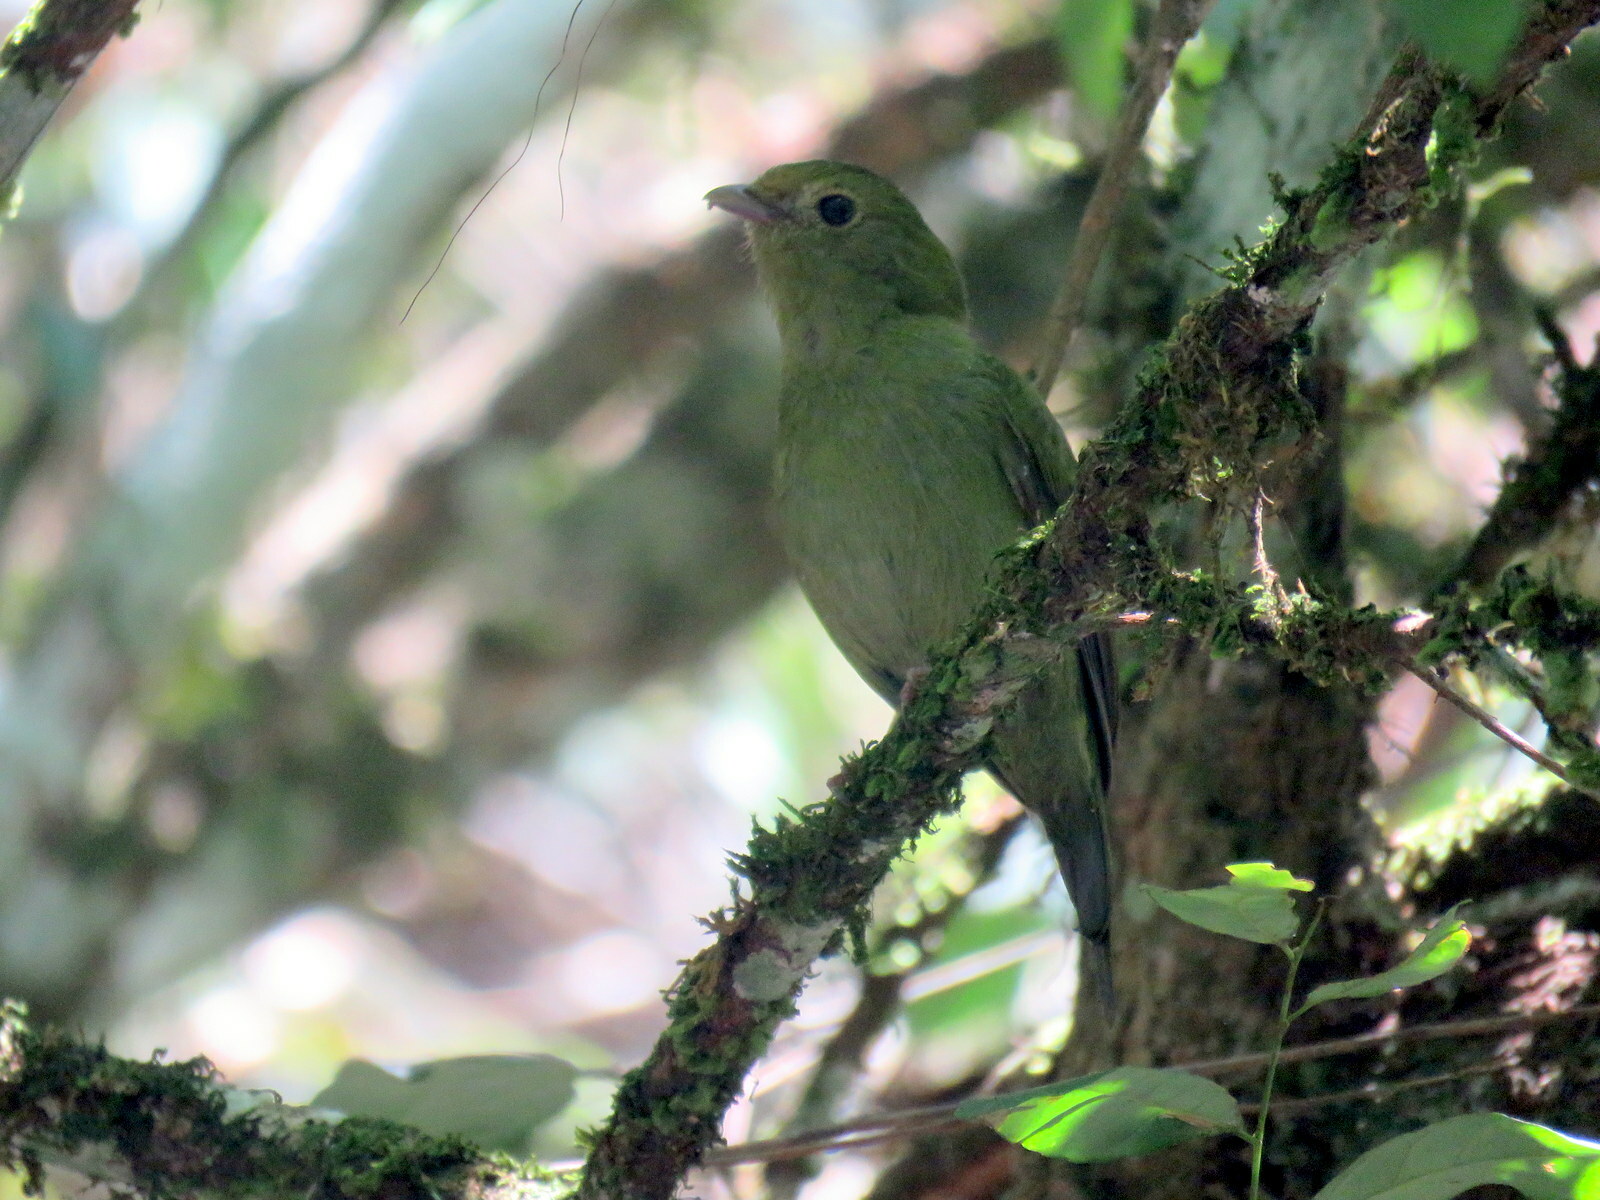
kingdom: Animalia
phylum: Chordata
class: Aves
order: Passeriformes
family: Pipridae
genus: Chiroxiphia
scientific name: Chiroxiphia caudata
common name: Blue manakin
